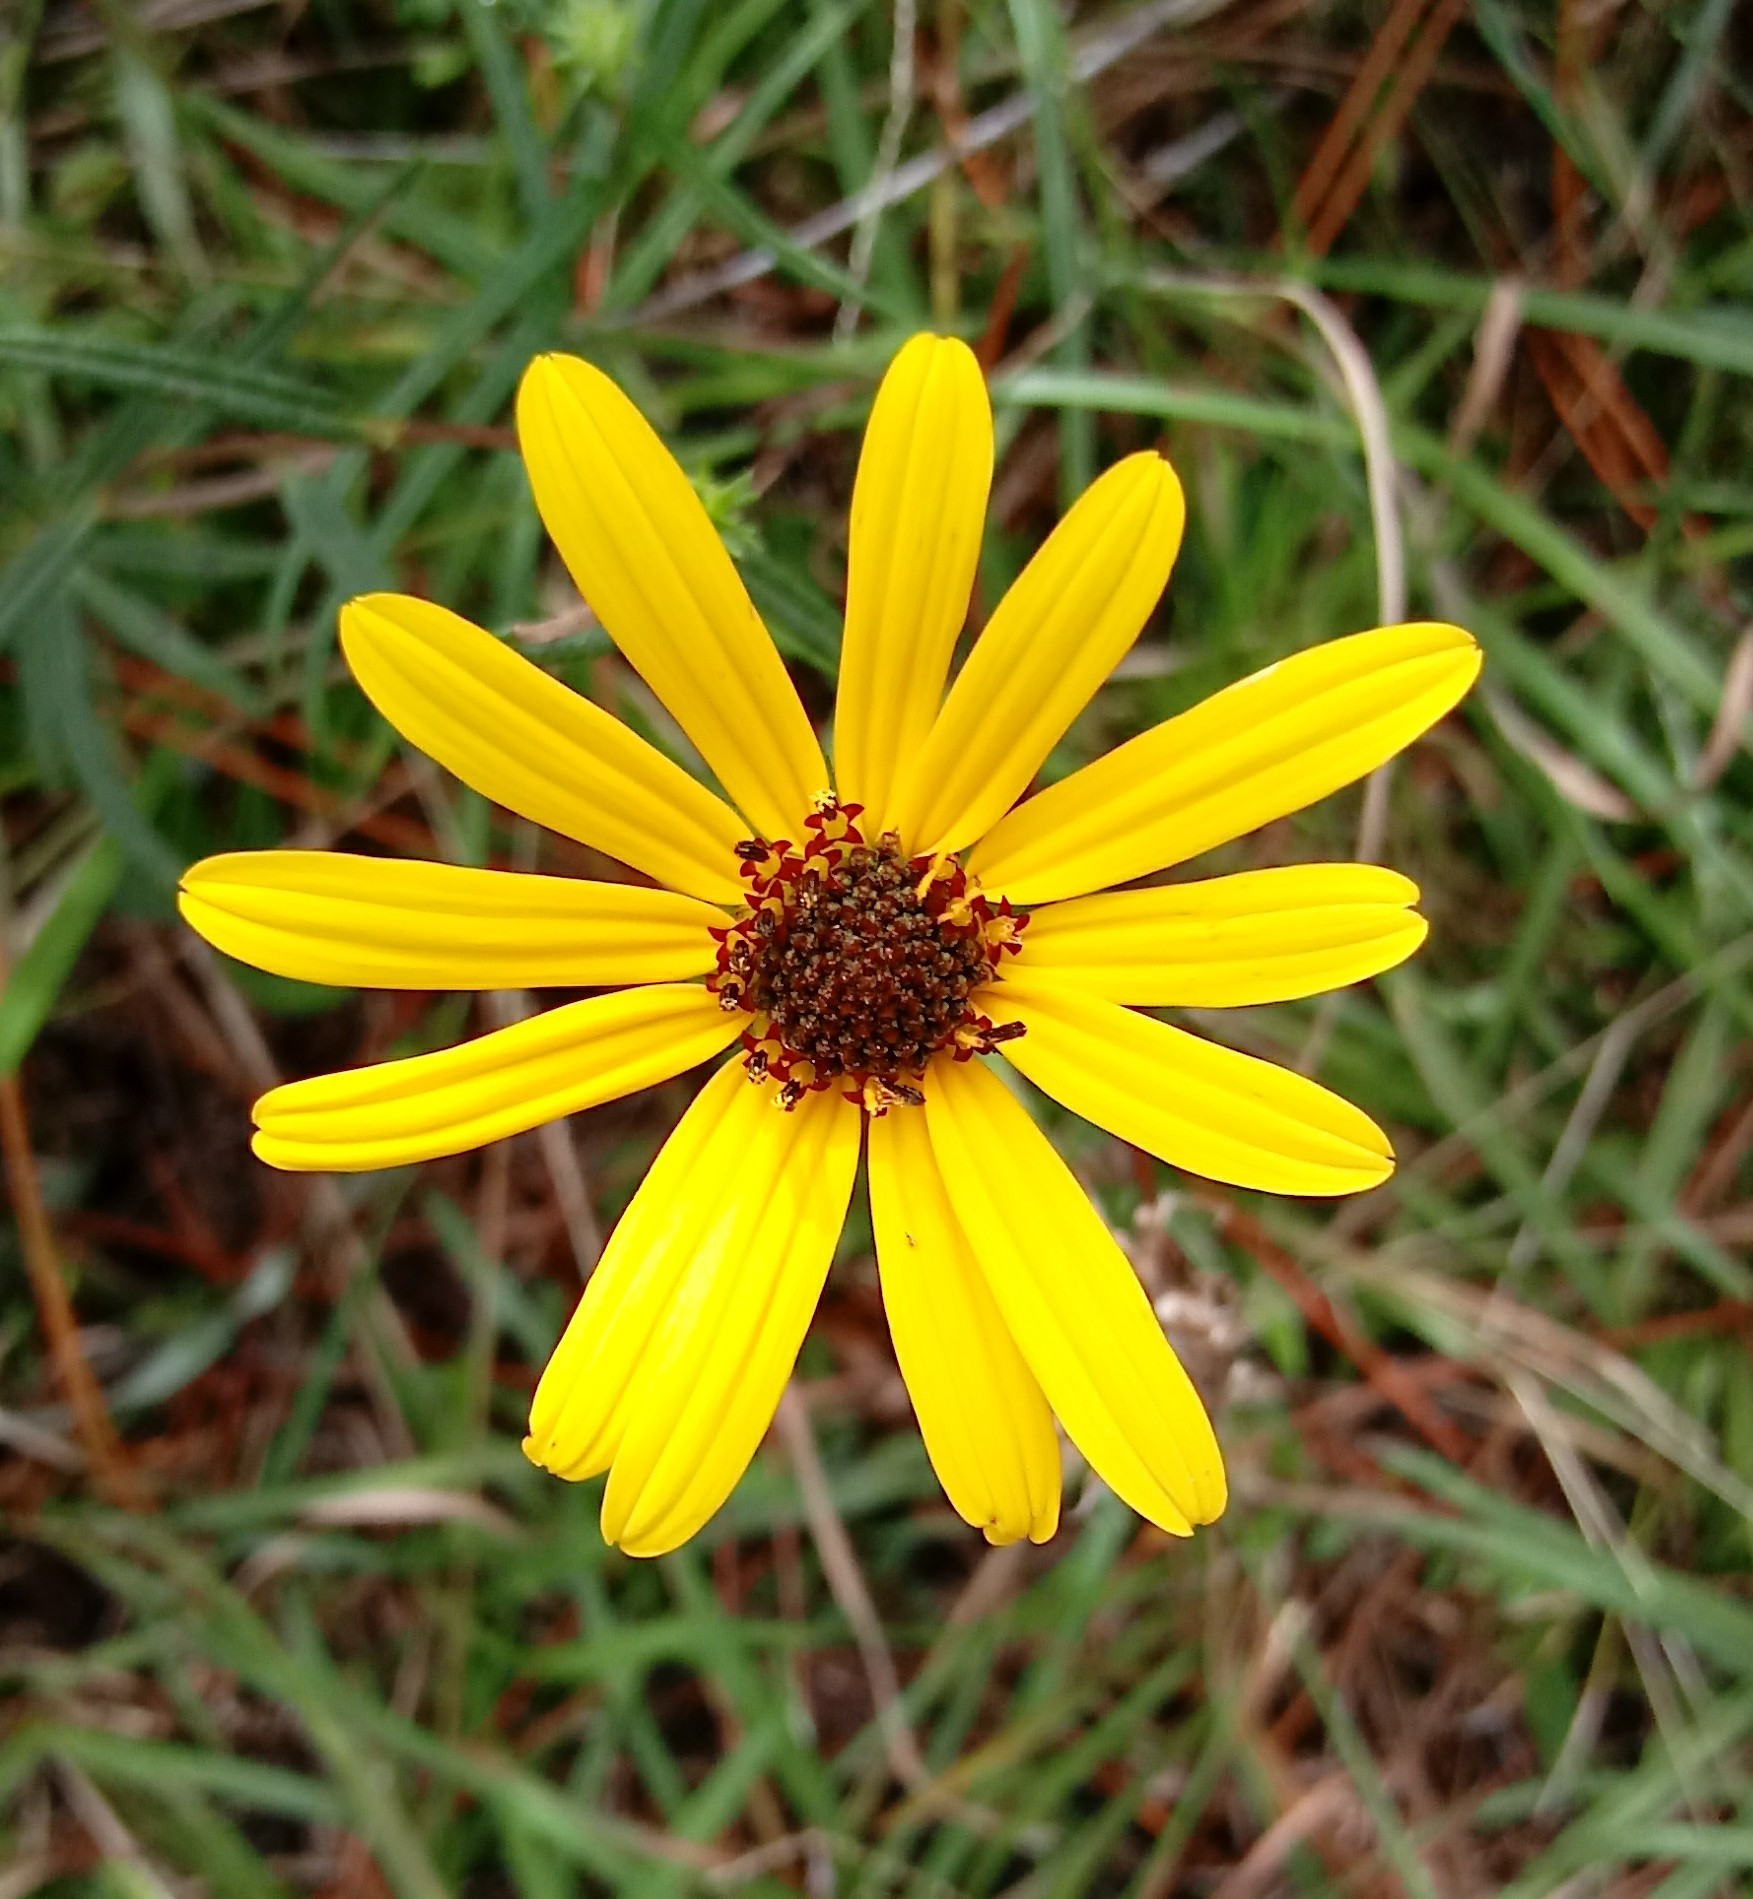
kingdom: Plantae
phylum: Tracheophyta
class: Magnoliopsida
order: Asterales
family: Asteraceae
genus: Helianthus
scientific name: Helianthus angustifolius
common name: Swamp sunflower
